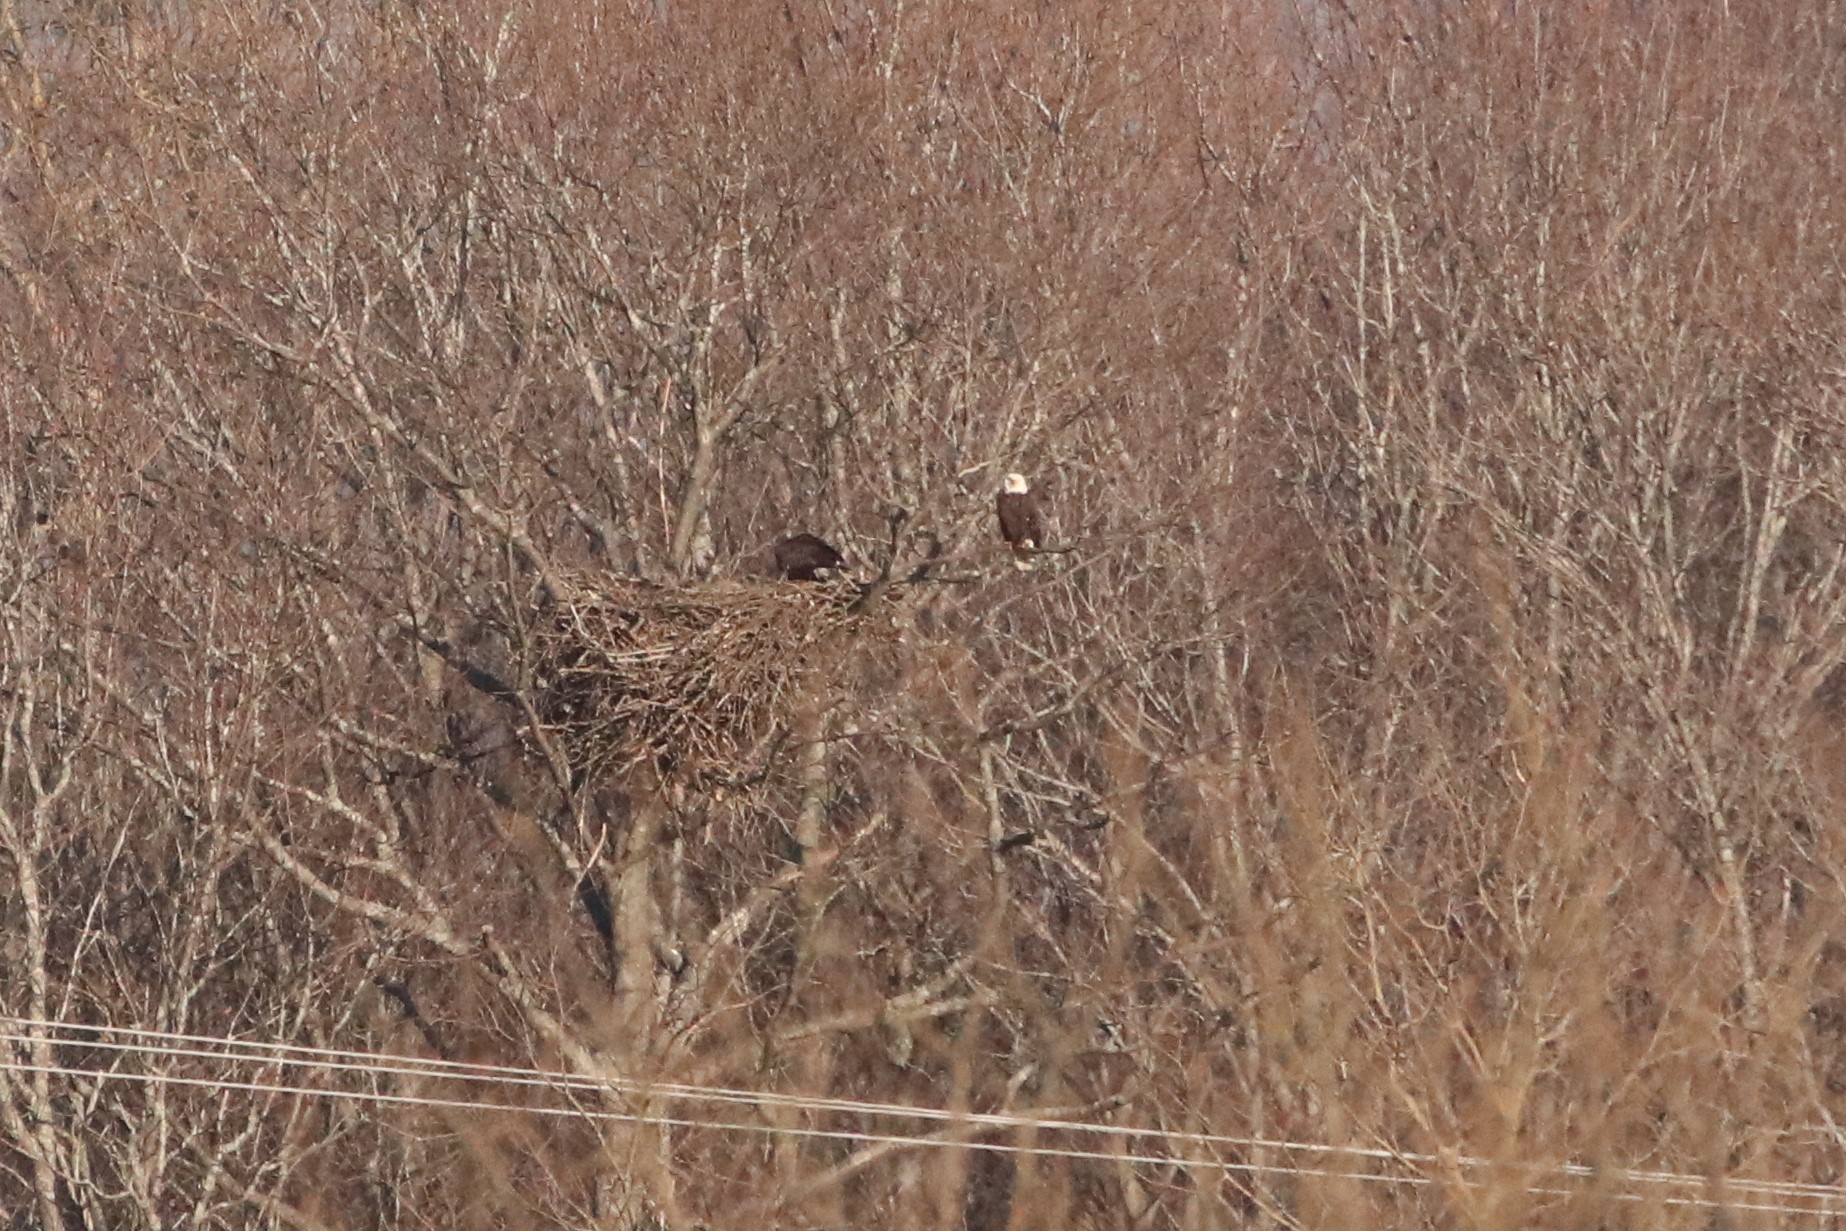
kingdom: Animalia
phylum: Chordata
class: Aves
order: Accipitriformes
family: Accipitridae
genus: Haliaeetus
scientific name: Haliaeetus leucocephalus
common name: Bald eagle
